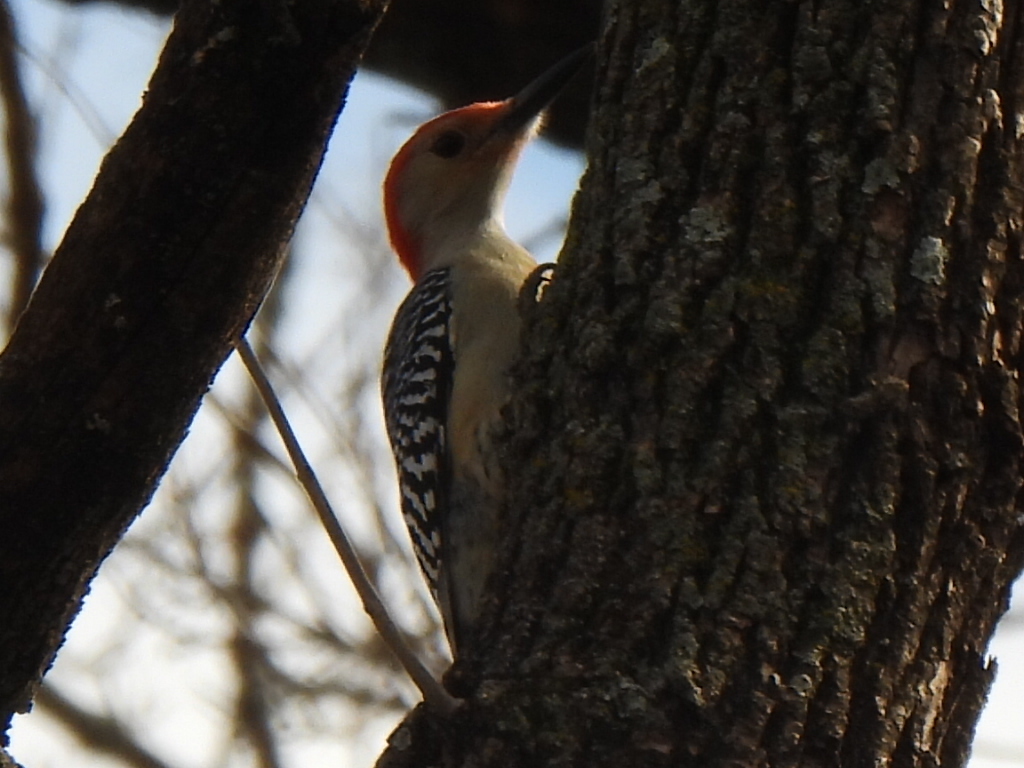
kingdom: Animalia
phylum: Chordata
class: Aves
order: Piciformes
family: Picidae
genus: Melanerpes
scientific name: Melanerpes carolinus
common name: Red-bellied woodpecker
